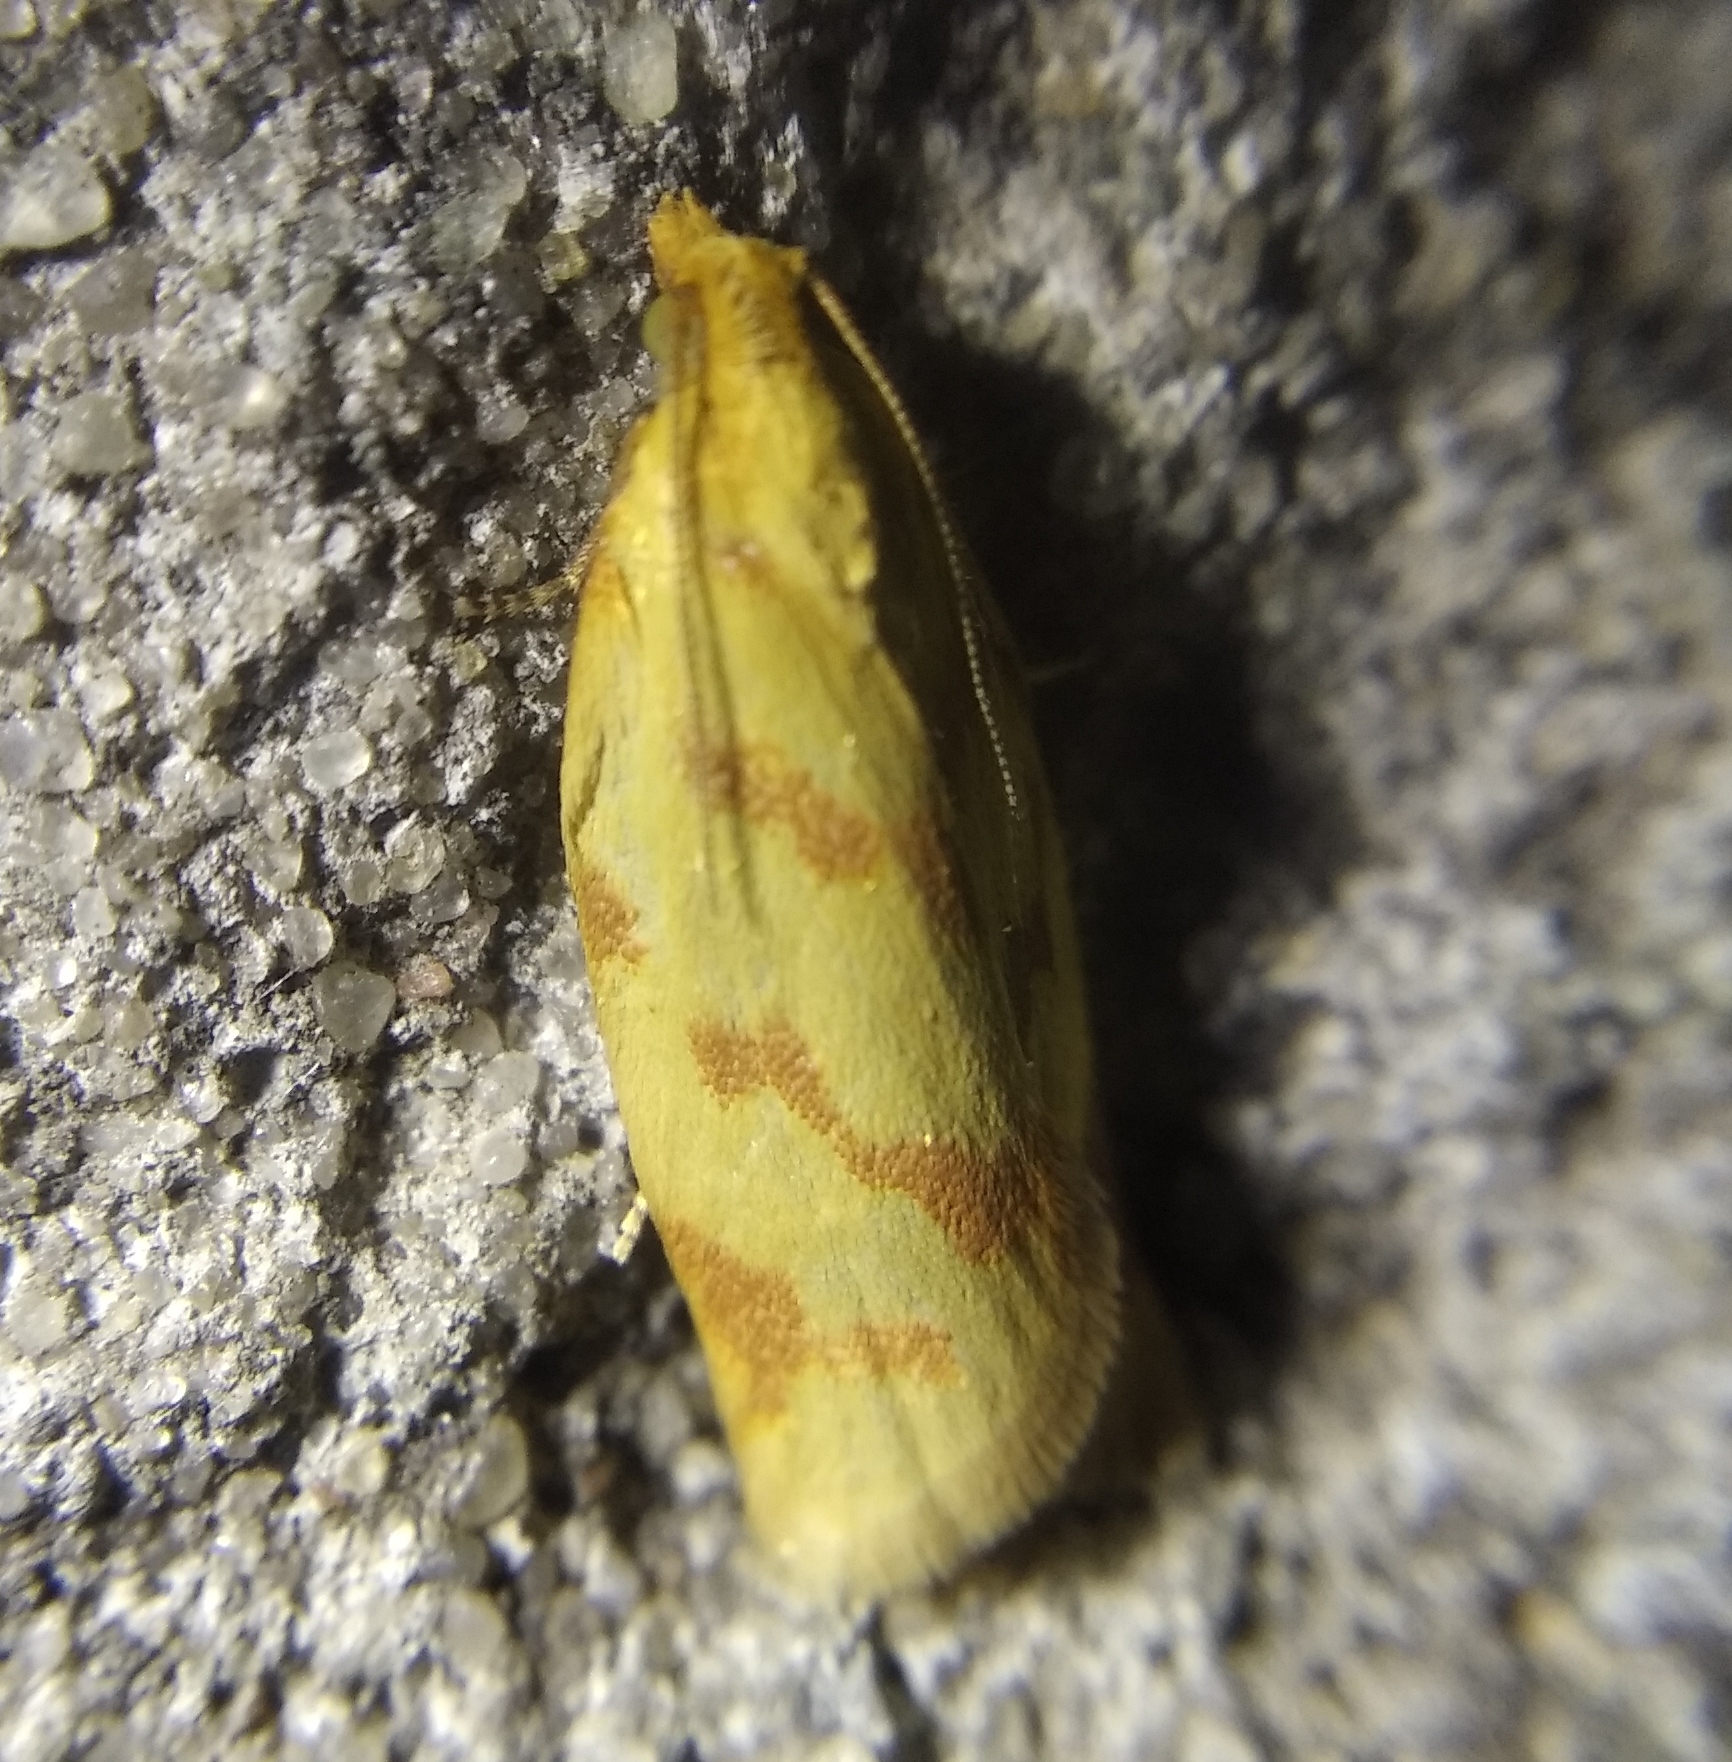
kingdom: Animalia
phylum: Arthropoda
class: Insecta
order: Lepidoptera
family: Tortricidae
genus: Clepsis
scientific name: Clepsis pallidana
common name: Sheep's-bit conch
